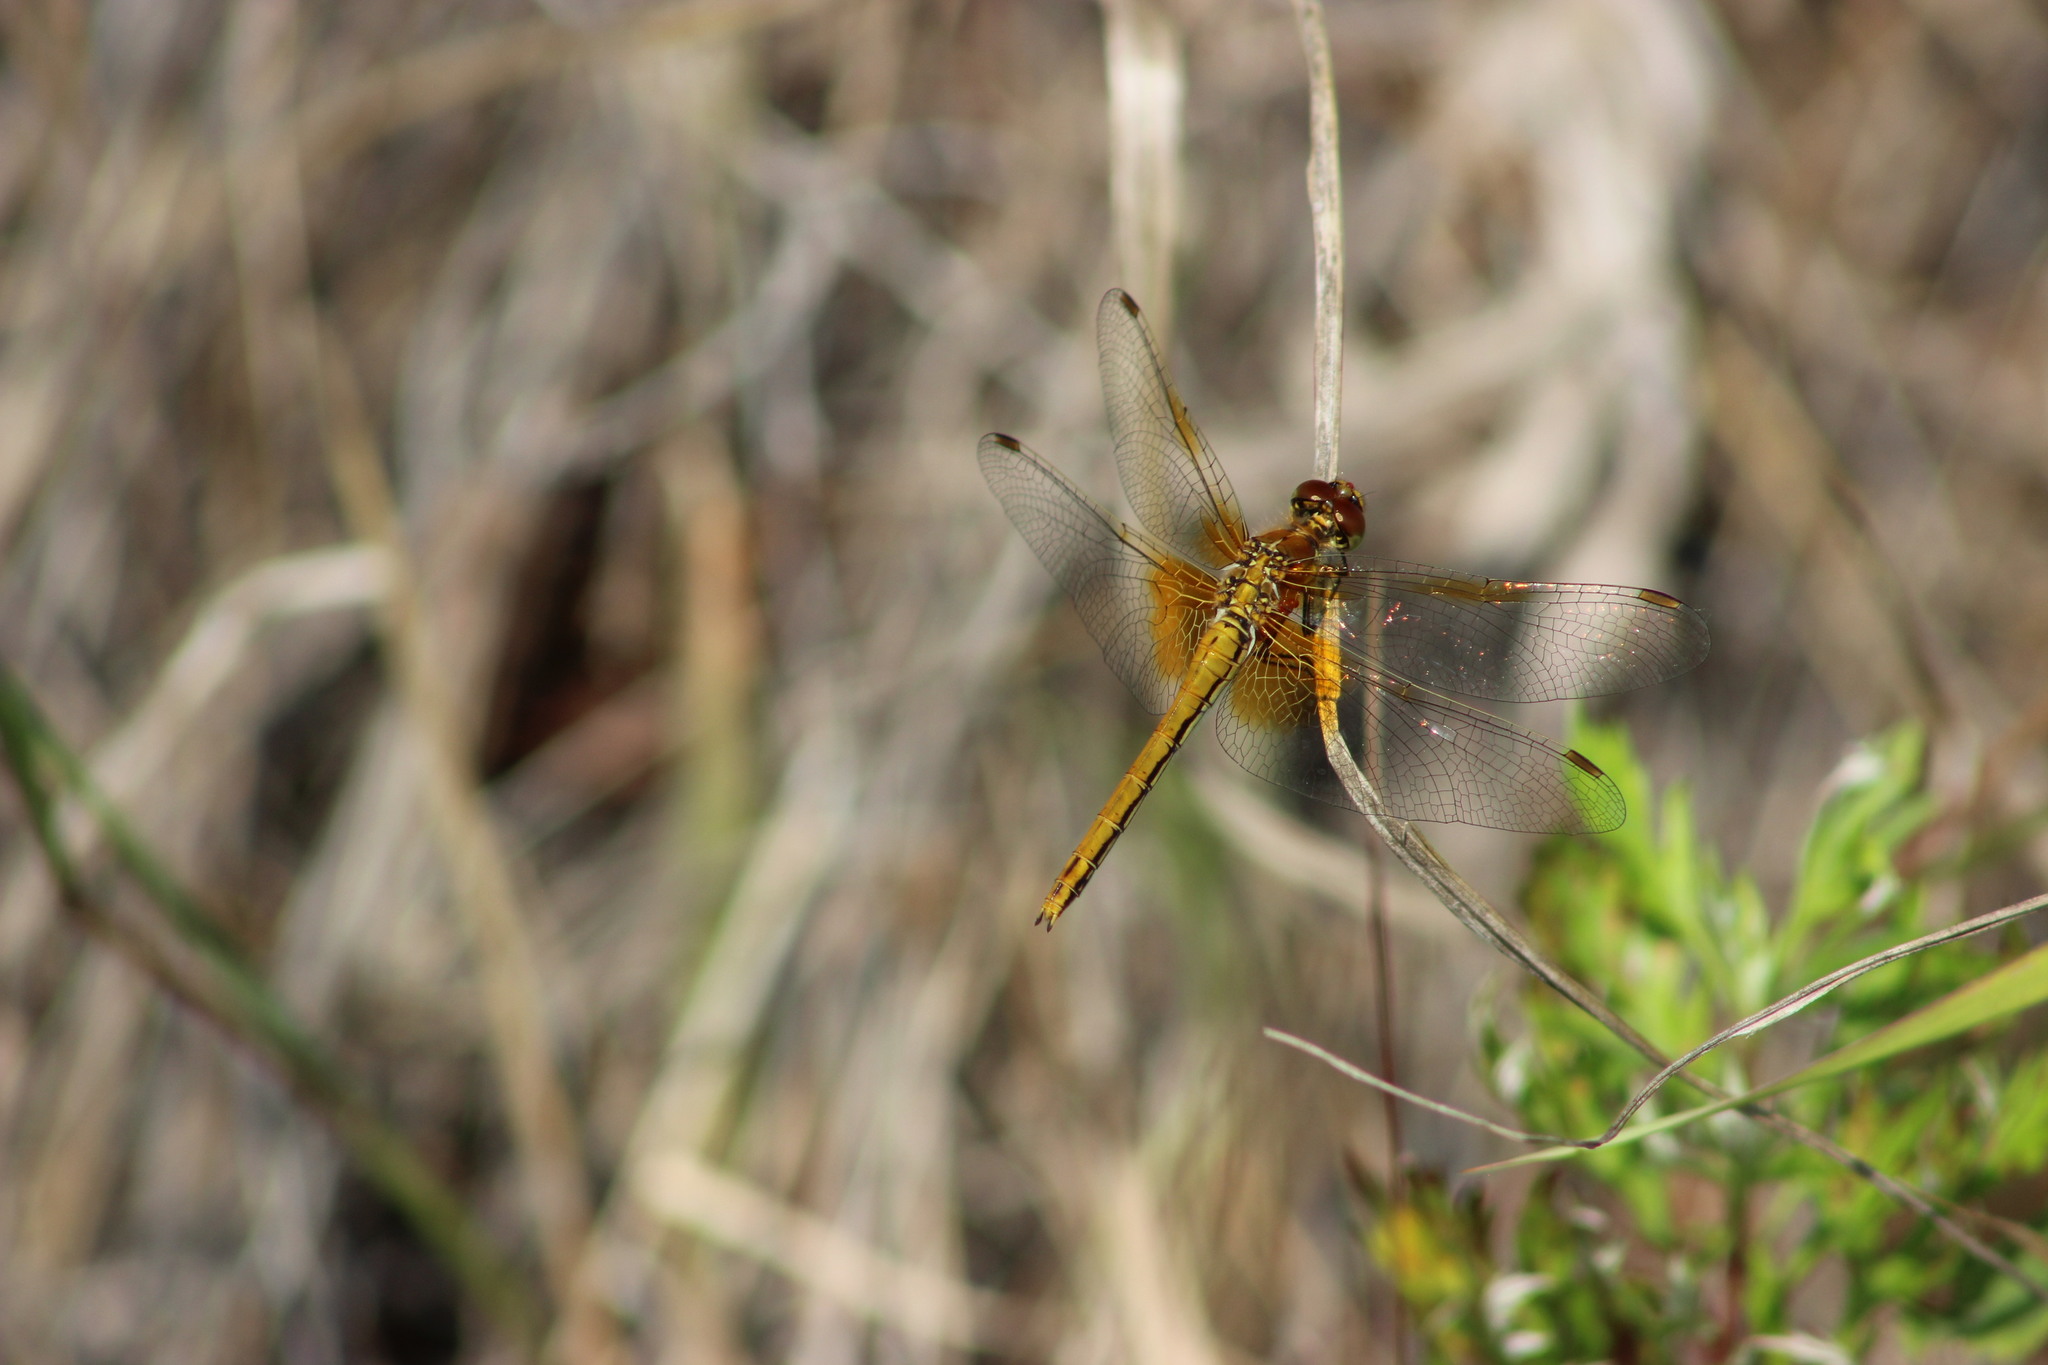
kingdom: Animalia
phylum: Arthropoda
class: Insecta
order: Odonata
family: Libellulidae
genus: Sympetrum
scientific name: Sympetrum flaveolum
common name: Yellow-winged darter
